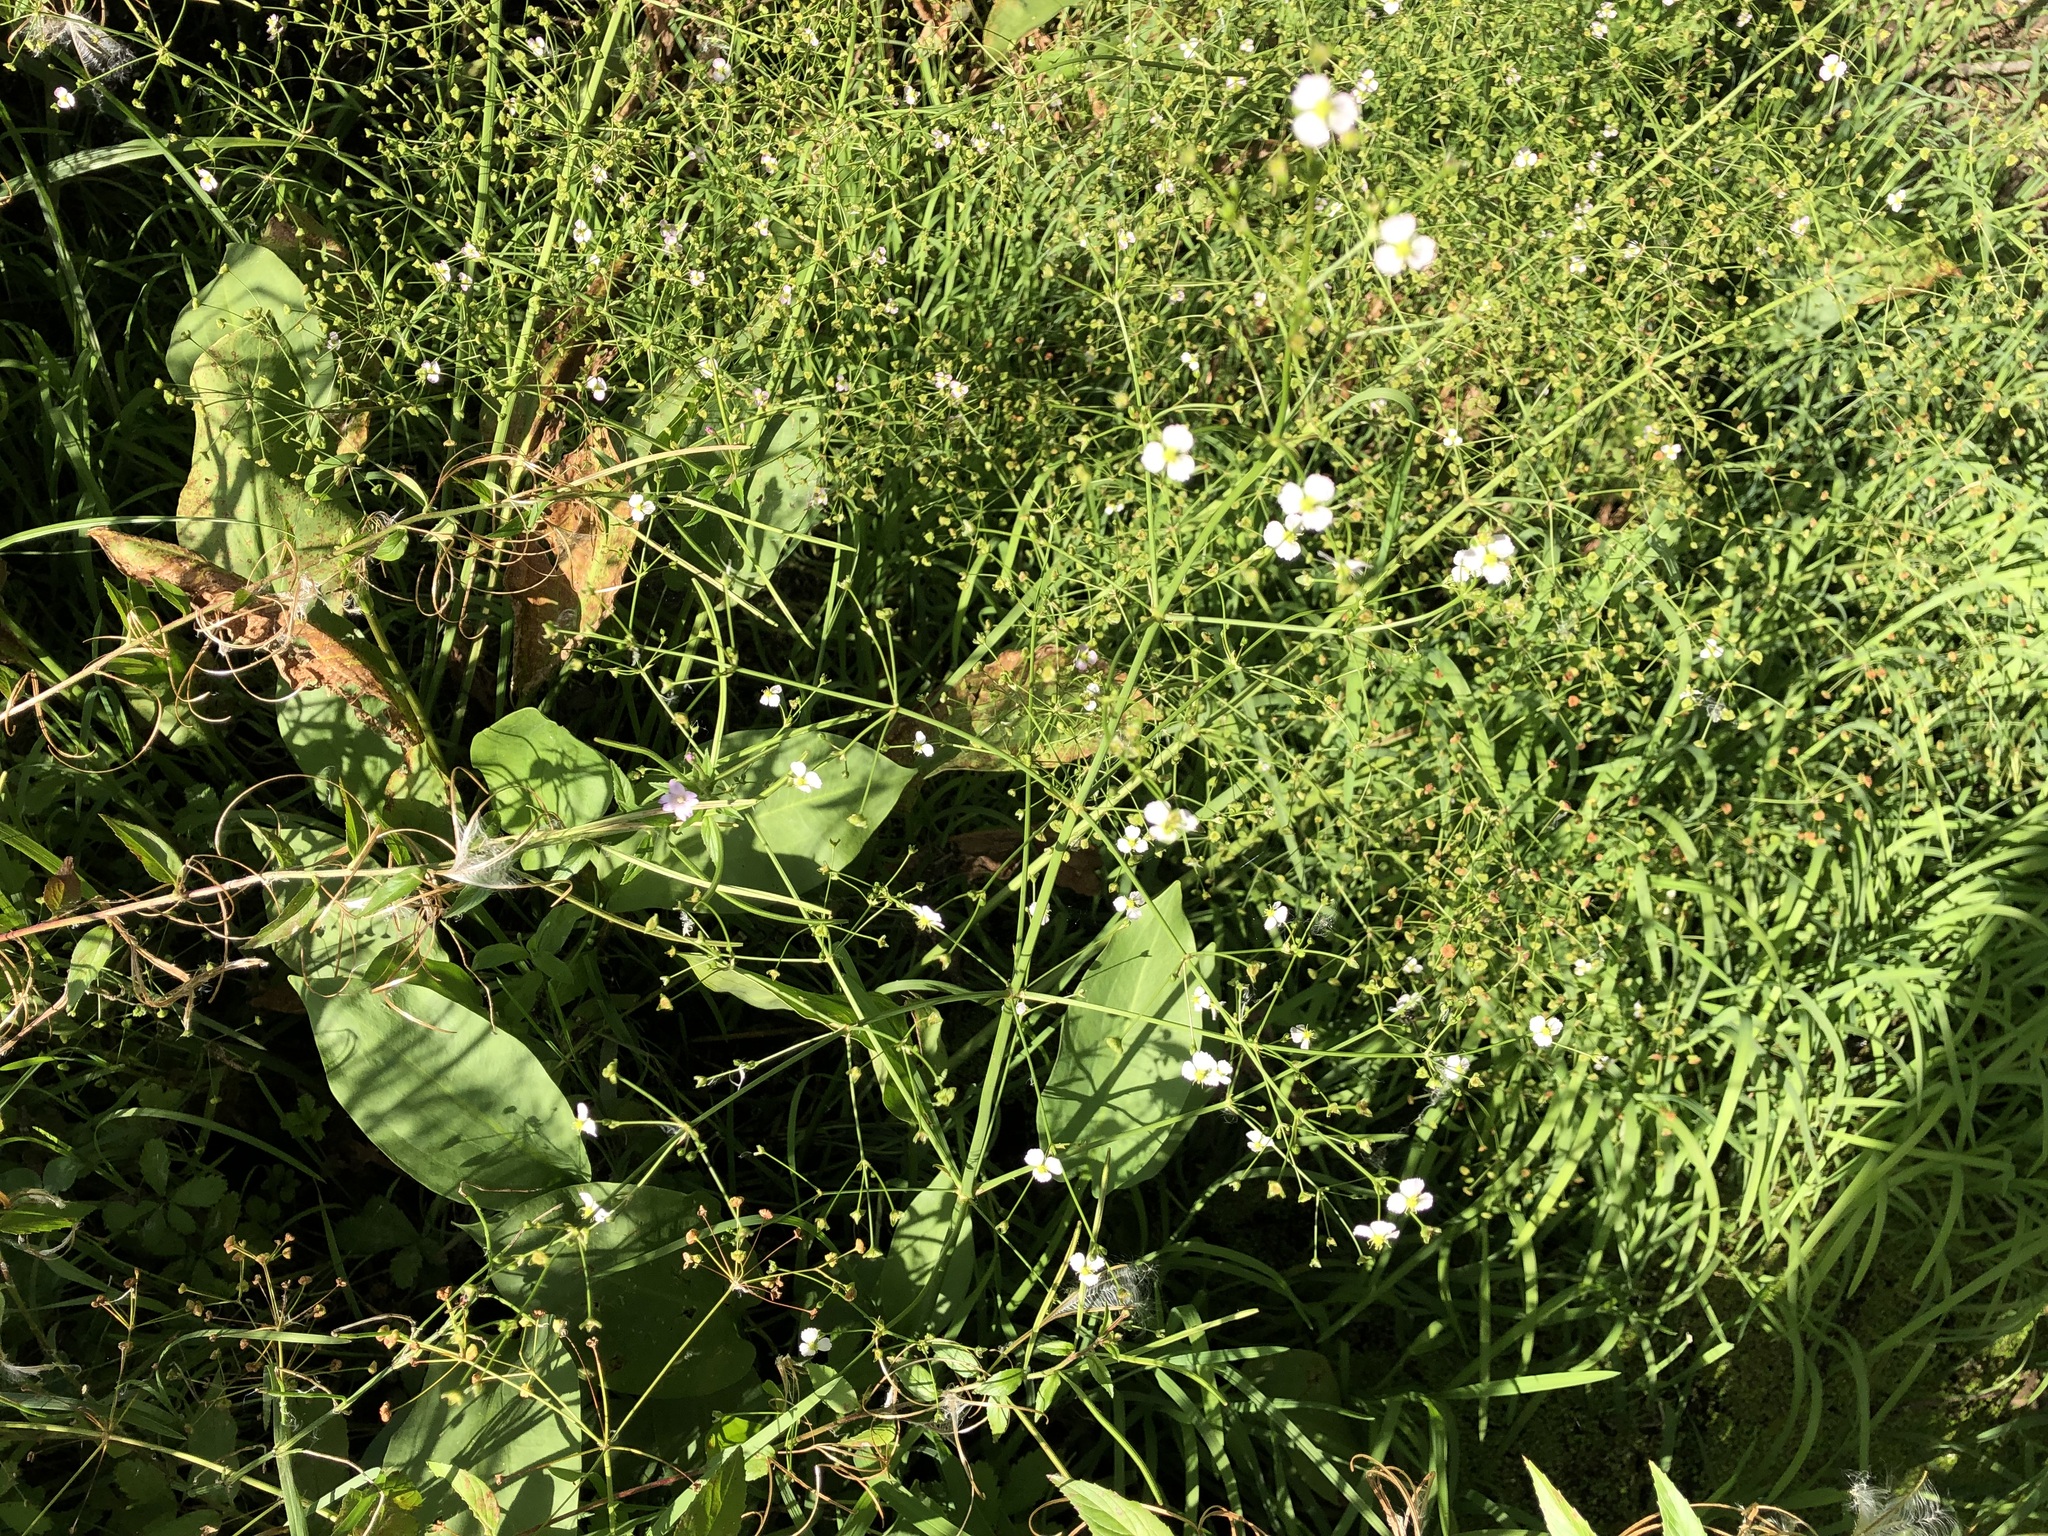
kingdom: Plantae
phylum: Tracheophyta
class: Liliopsida
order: Alismatales
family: Alismataceae
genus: Alisma
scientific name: Alisma plantago-aquatica
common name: Water-plantain
